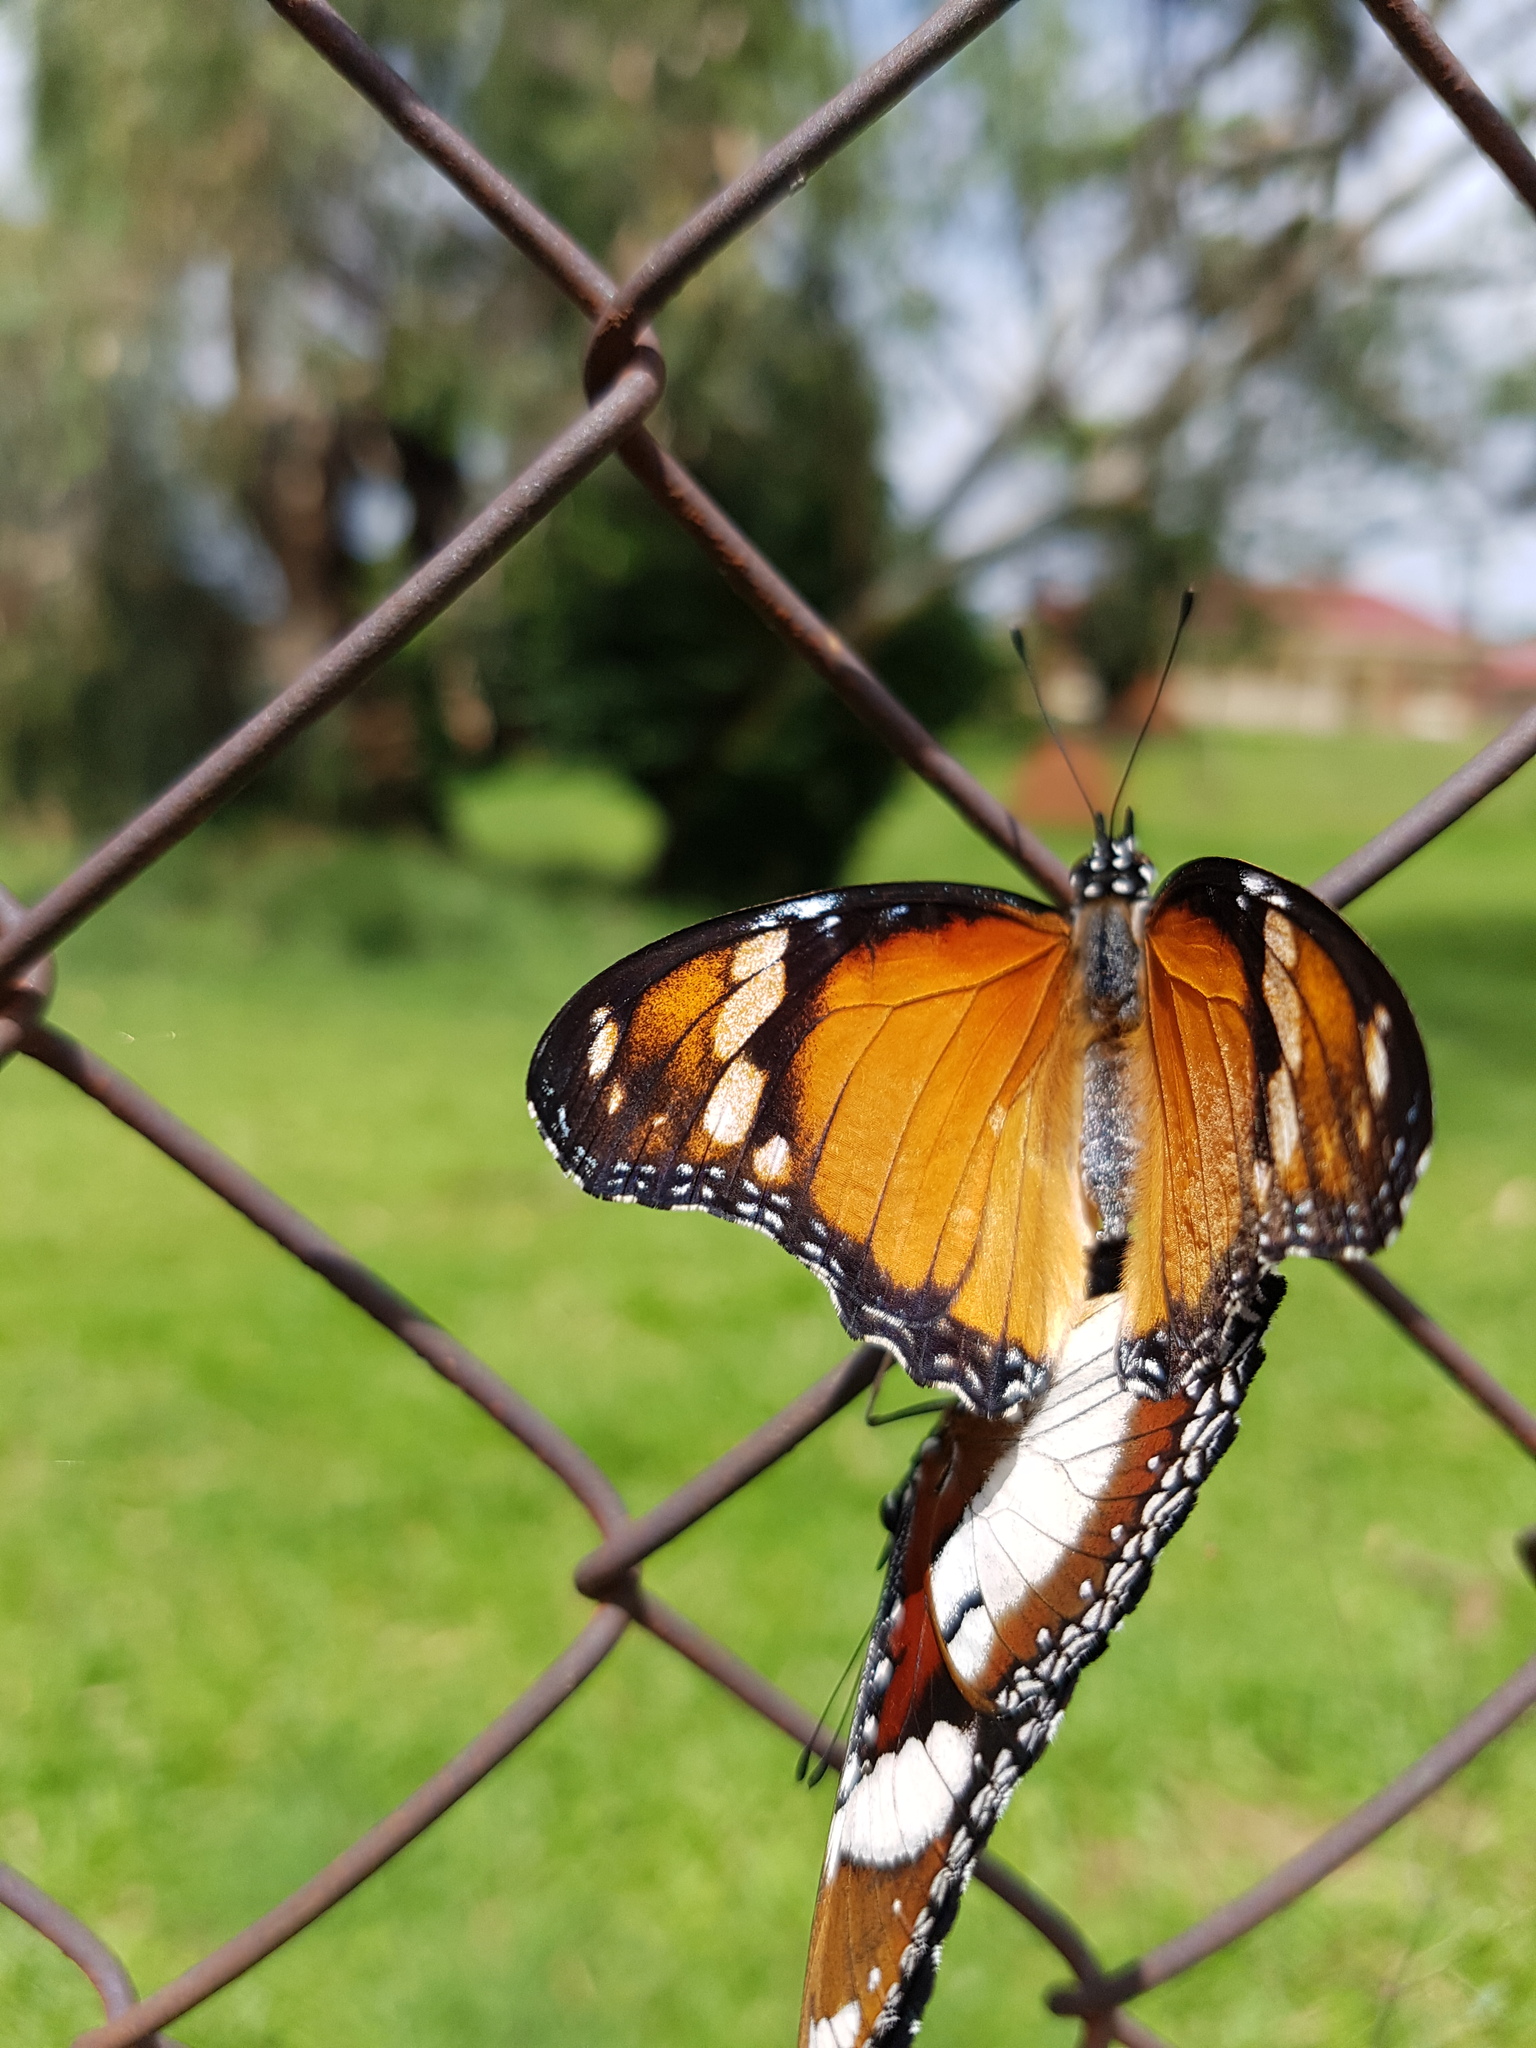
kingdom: Animalia
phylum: Arthropoda
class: Insecta
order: Lepidoptera
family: Nymphalidae
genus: Hypolimnas
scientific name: Hypolimnas misippus
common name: False plain tiger
